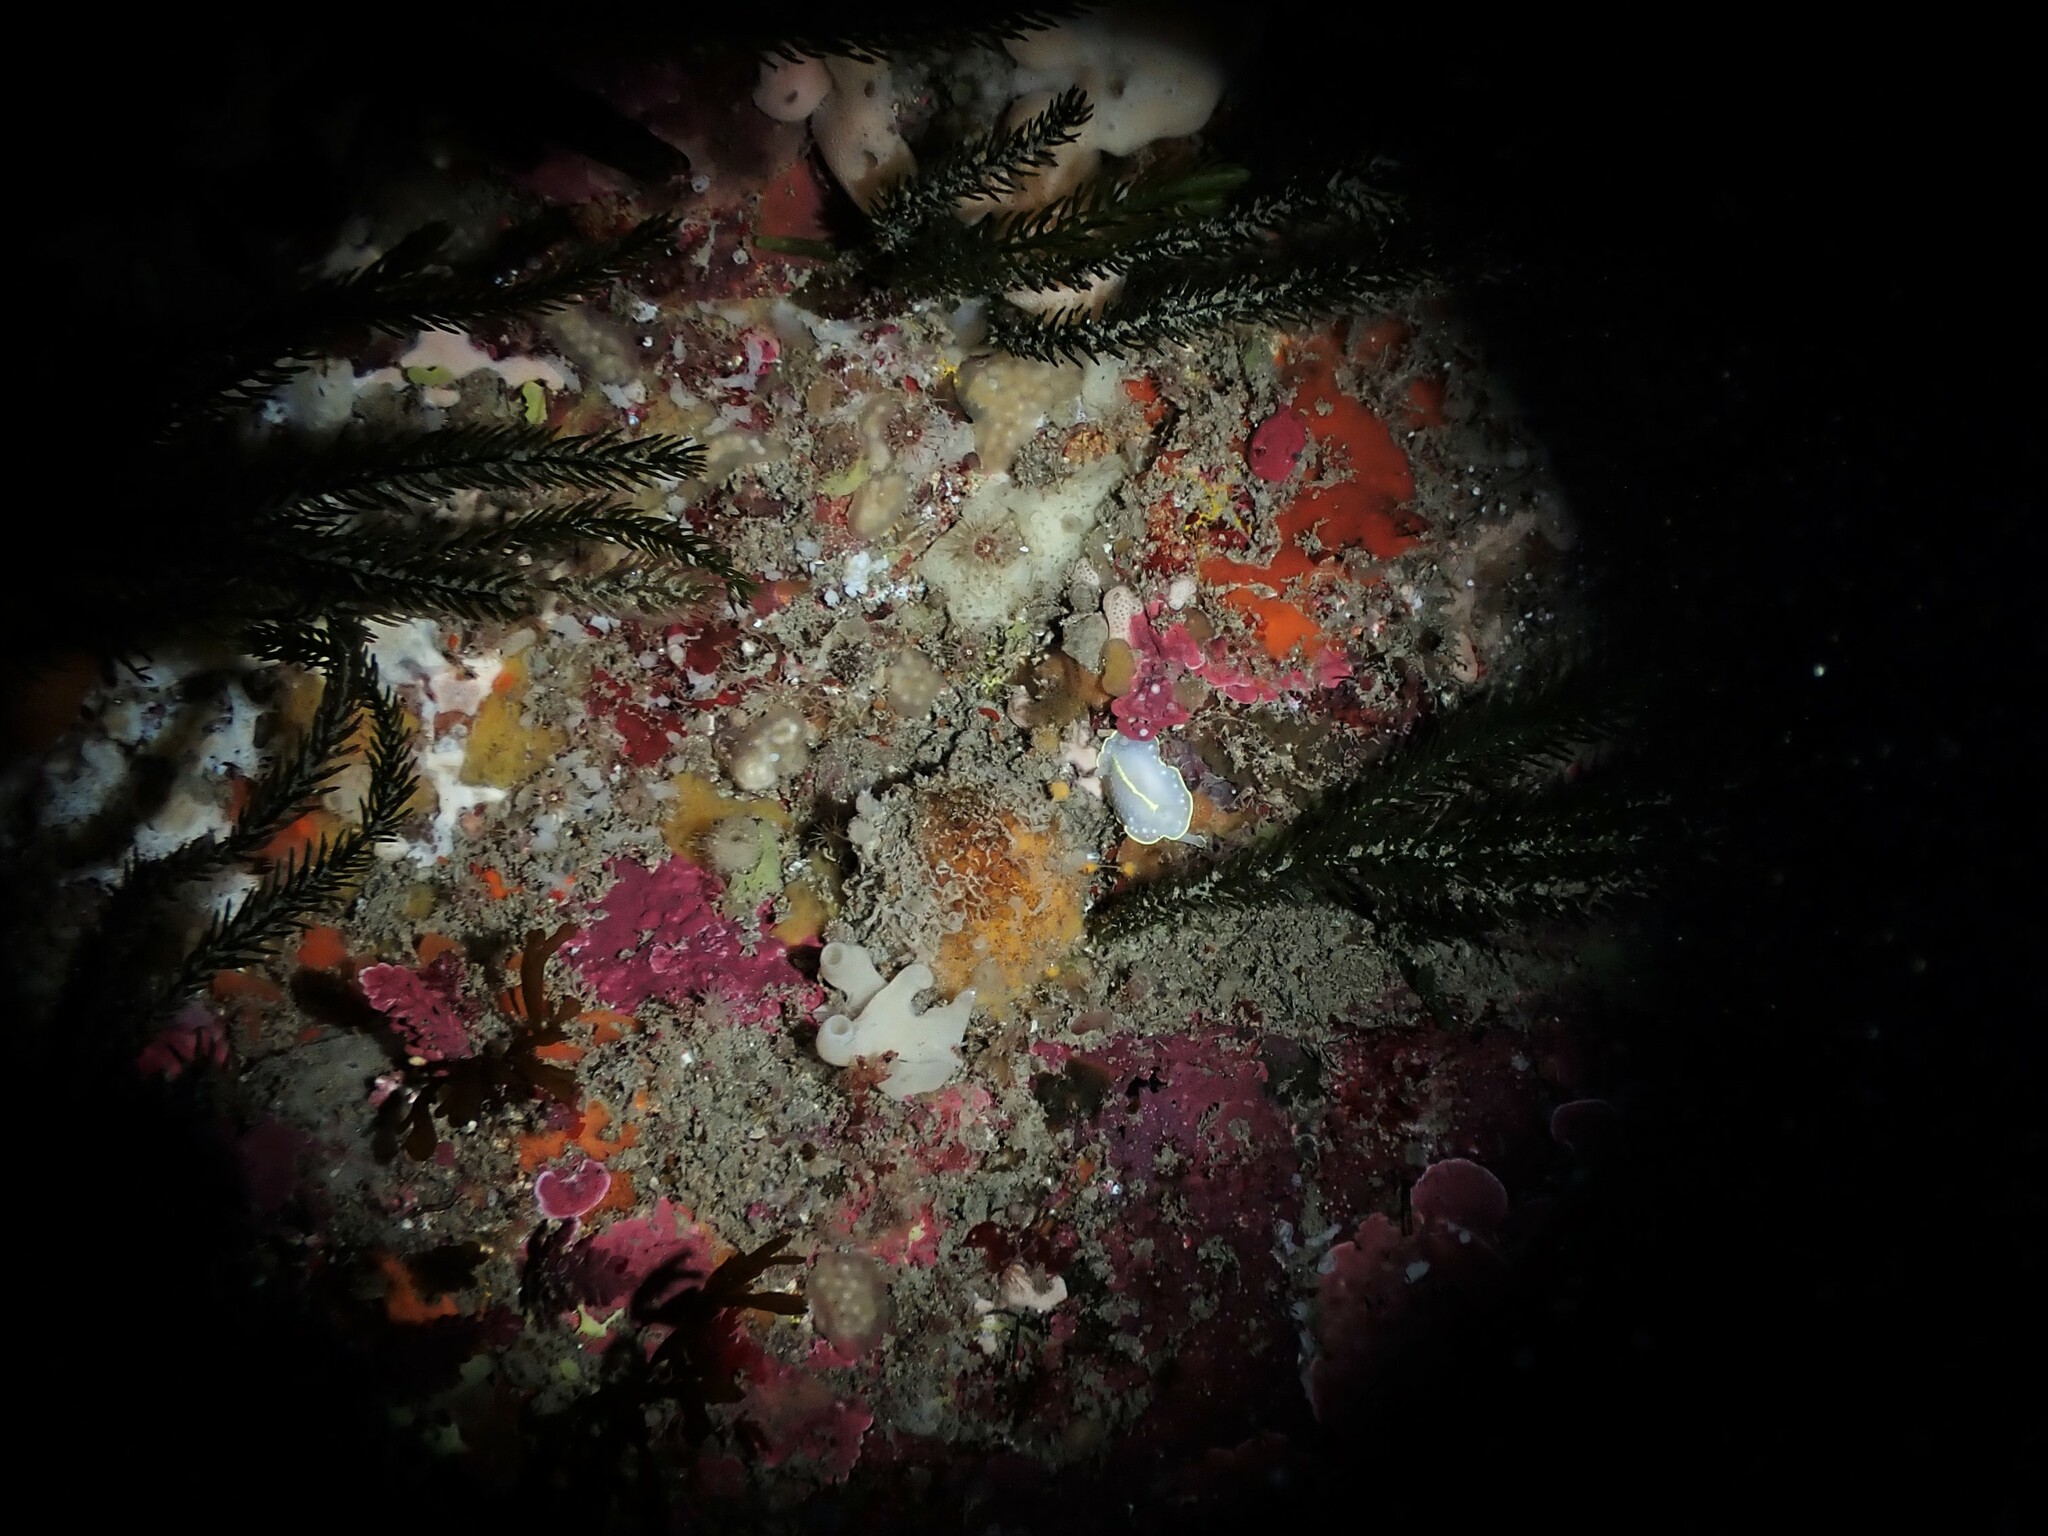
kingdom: Animalia
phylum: Mollusca
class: Gastropoda
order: Nudibranchia
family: Cadlinidae
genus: Cadlina
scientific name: Cadlina willani
